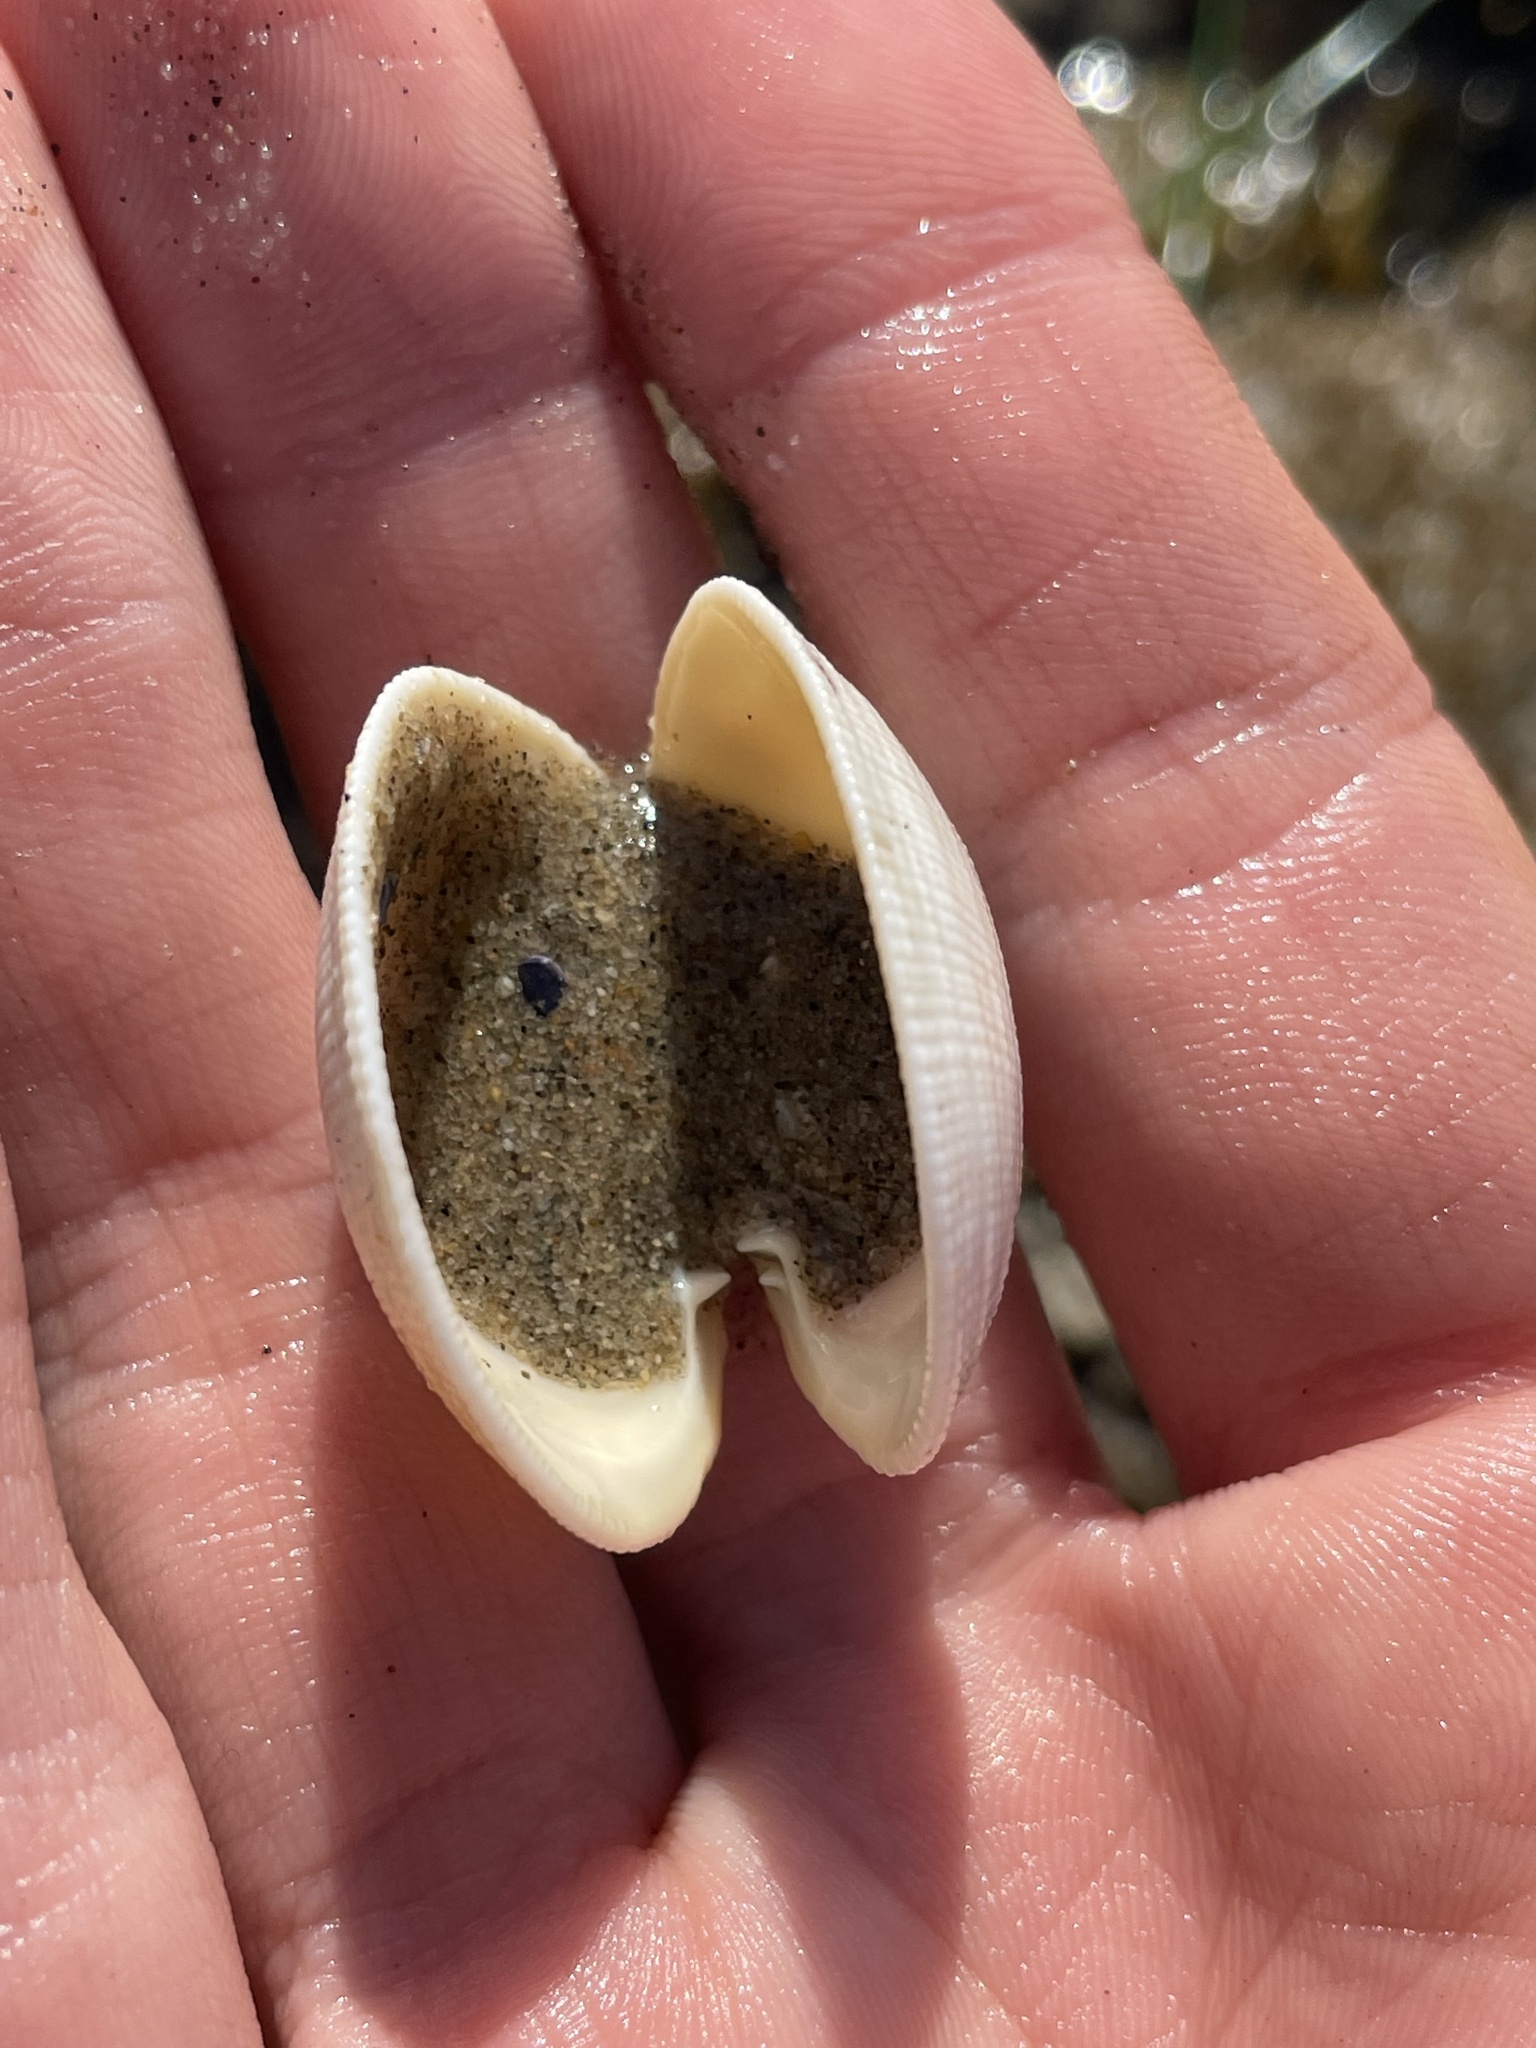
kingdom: Animalia
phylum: Mollusca
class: Bivalvia
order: Venerida
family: Veneridae
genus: Leukoma
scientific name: Leukoma staminea
